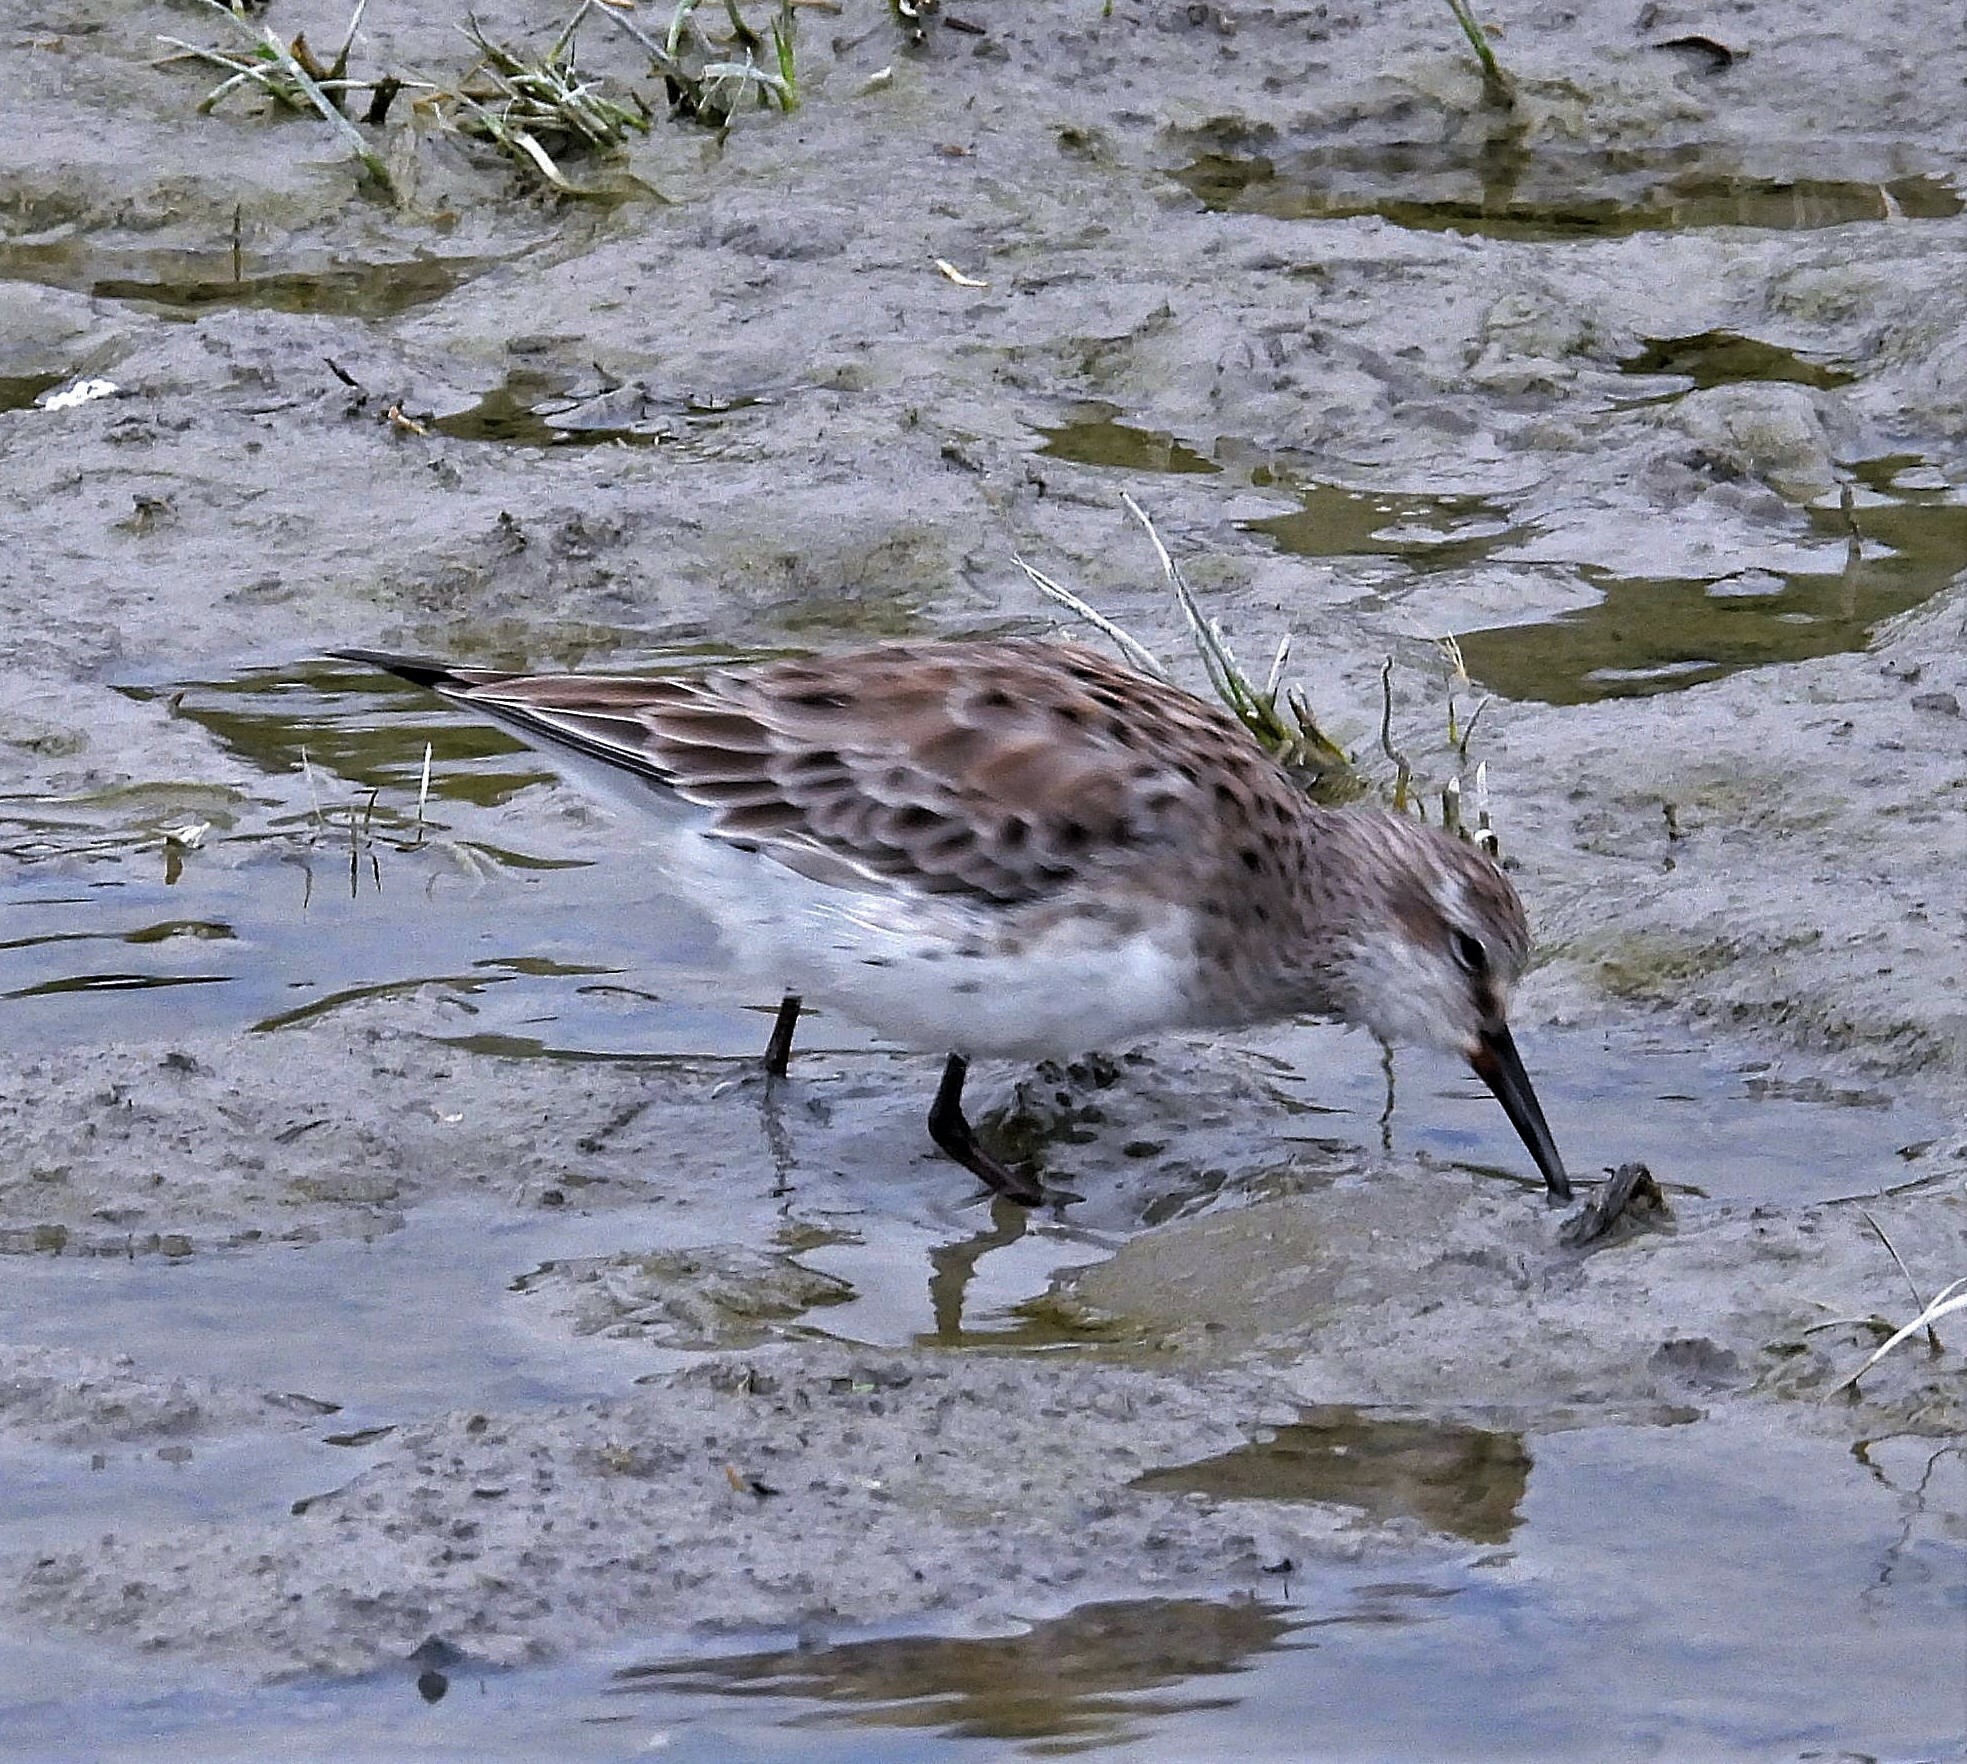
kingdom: Animalia
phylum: Chordata
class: Aves
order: Charadriiformes
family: Scolopacidae
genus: Calidris
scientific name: Calidris fuscicollis
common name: White-rumped sandpiper
